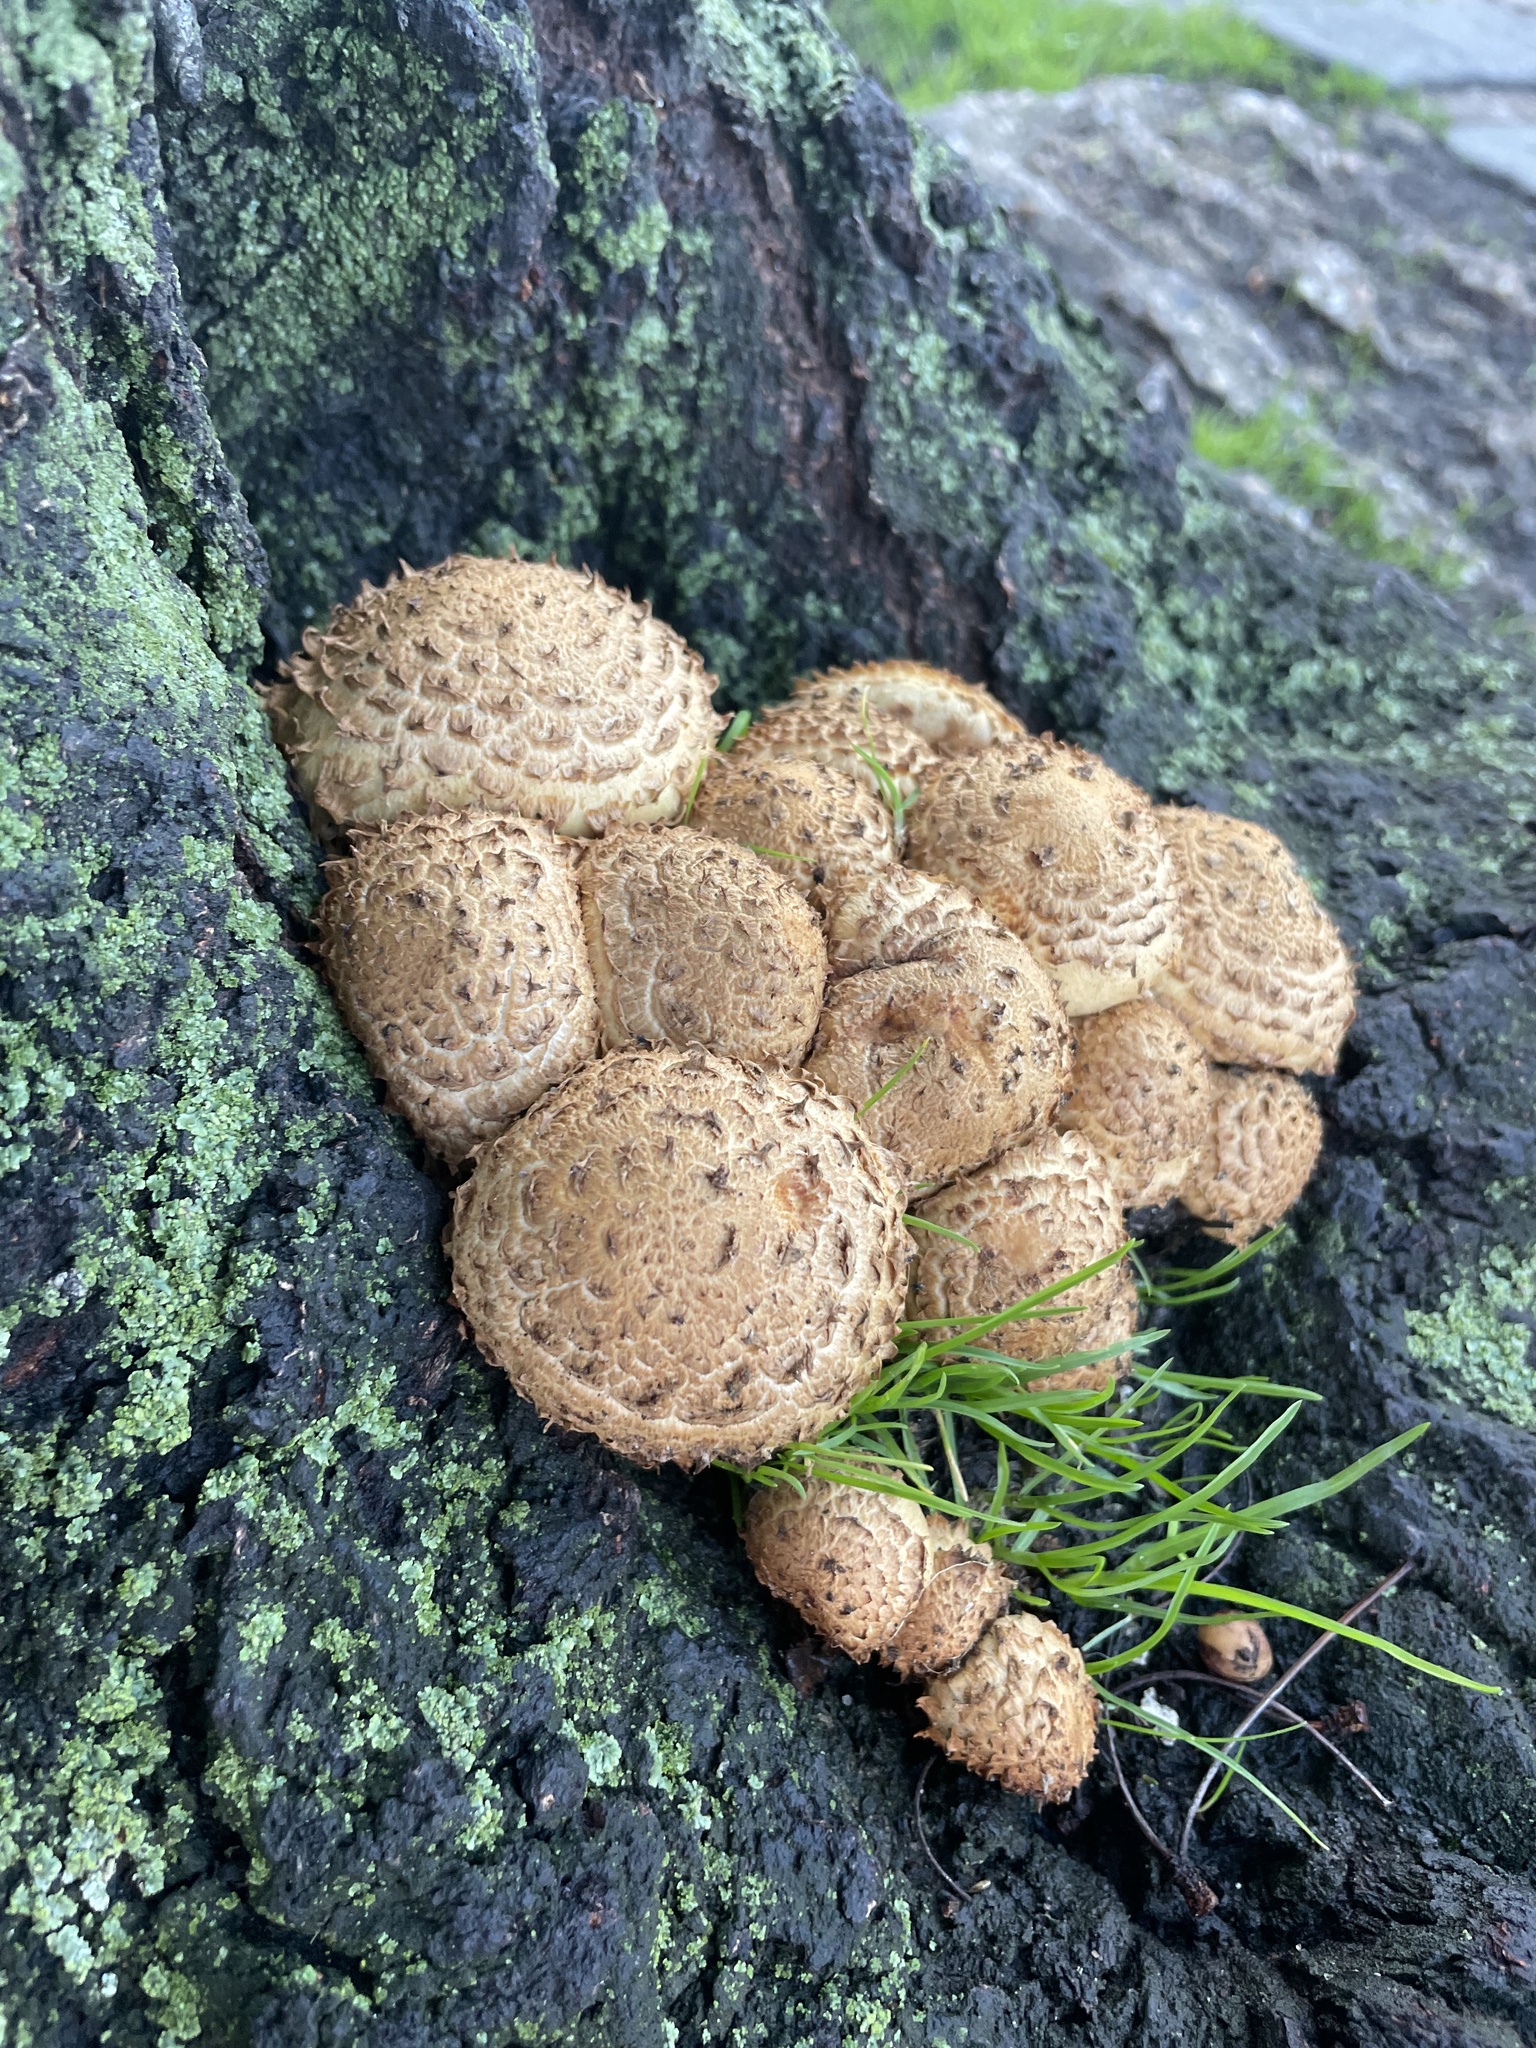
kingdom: Fungi
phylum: Basidiomycota
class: Agaricomycetes
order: Agaricales
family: Strophariaceae
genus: Pholiota
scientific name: Pholiota squarrosa
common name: Shaggy pholiota
